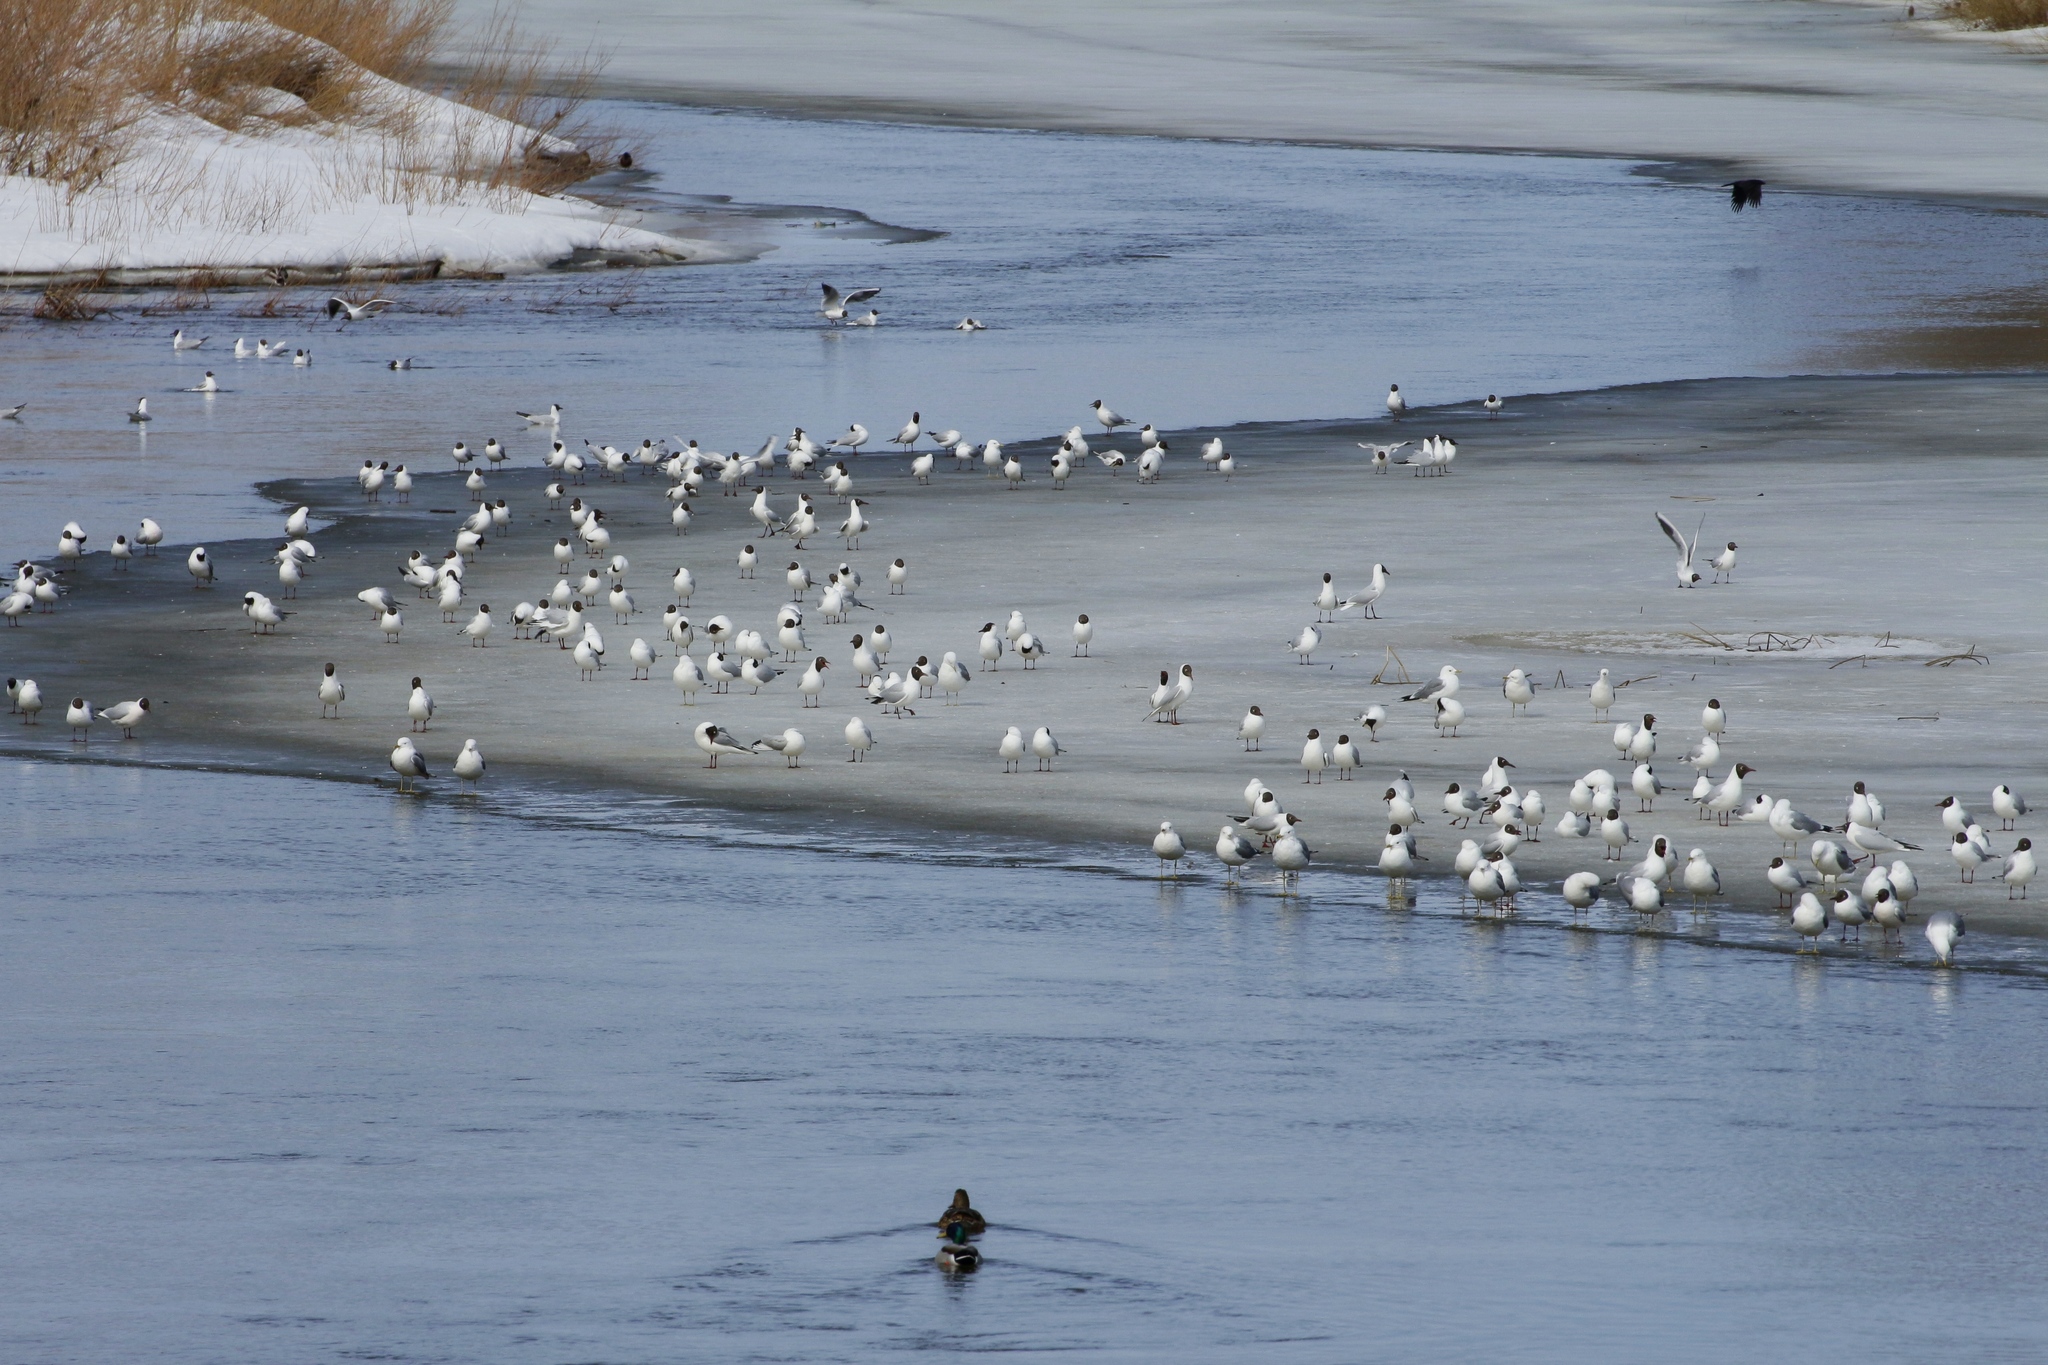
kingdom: Animalia
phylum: Chordata
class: Aves
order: Charadriiformes
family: Laridae
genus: Larus
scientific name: Larus canus
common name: Mew gull
